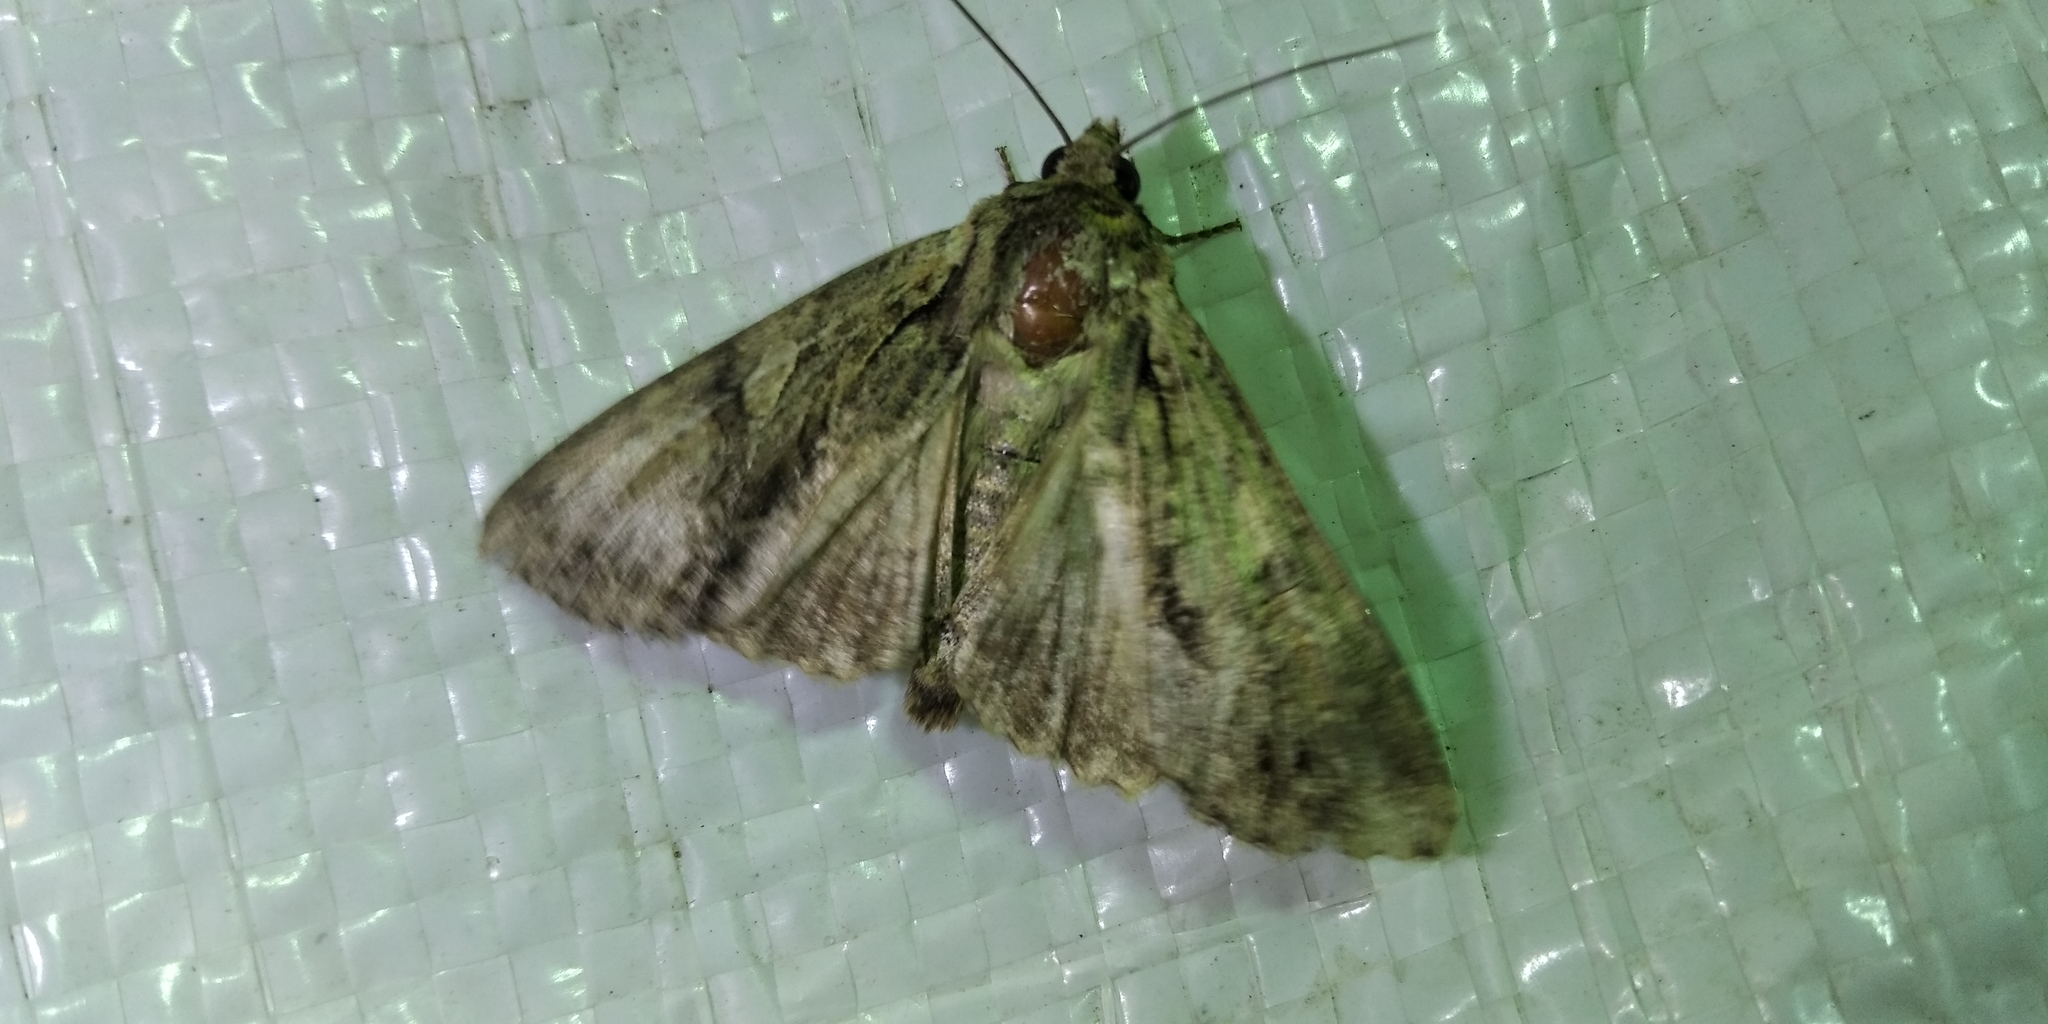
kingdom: Animalia
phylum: Arthropoda
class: Insecta
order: Lepidoptera
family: Noctuidae
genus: Apamea
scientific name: Apamea monoglypha
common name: Dark arches
